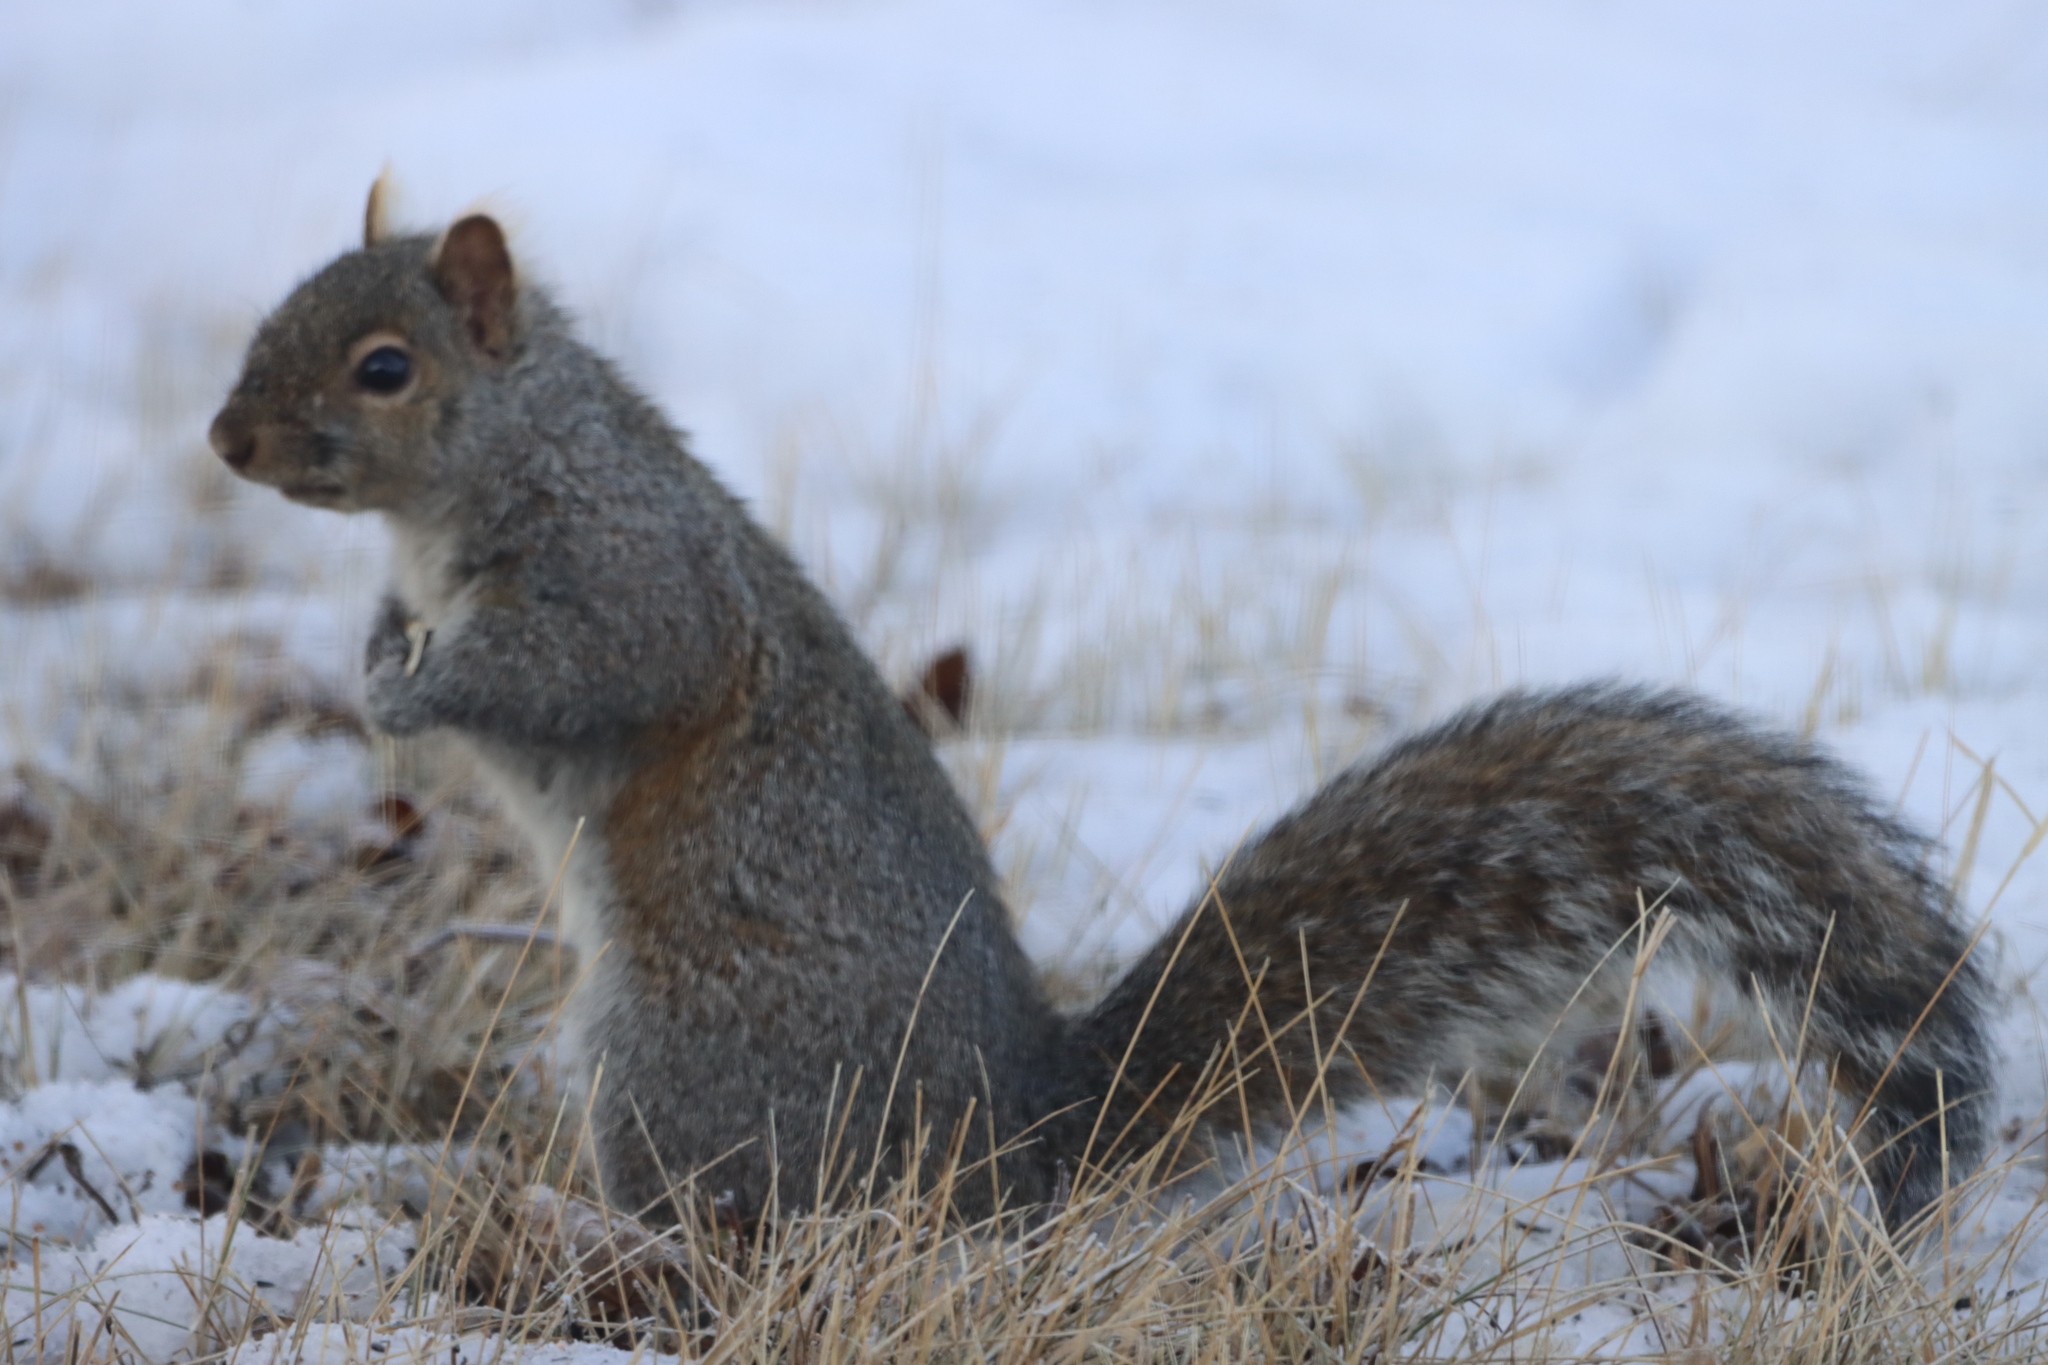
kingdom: Animalia
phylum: Chordata
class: Mammalia
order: Rodentia
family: Sciuridae
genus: Sciurus
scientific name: Sciurus carolinensis
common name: Eastern gray squirrel
